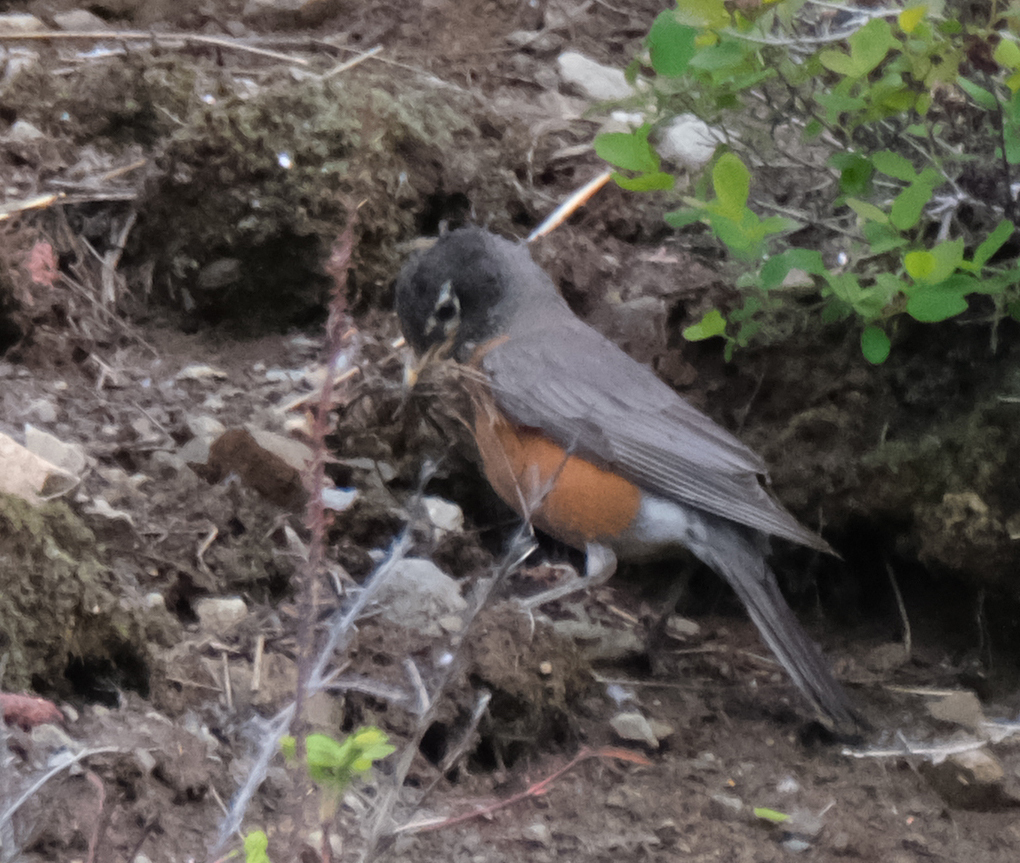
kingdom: Animalia
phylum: Chordata
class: Aves
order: Passeriformes
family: Turdidae
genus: Turdus
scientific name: Turdus migratorius
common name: American robin
